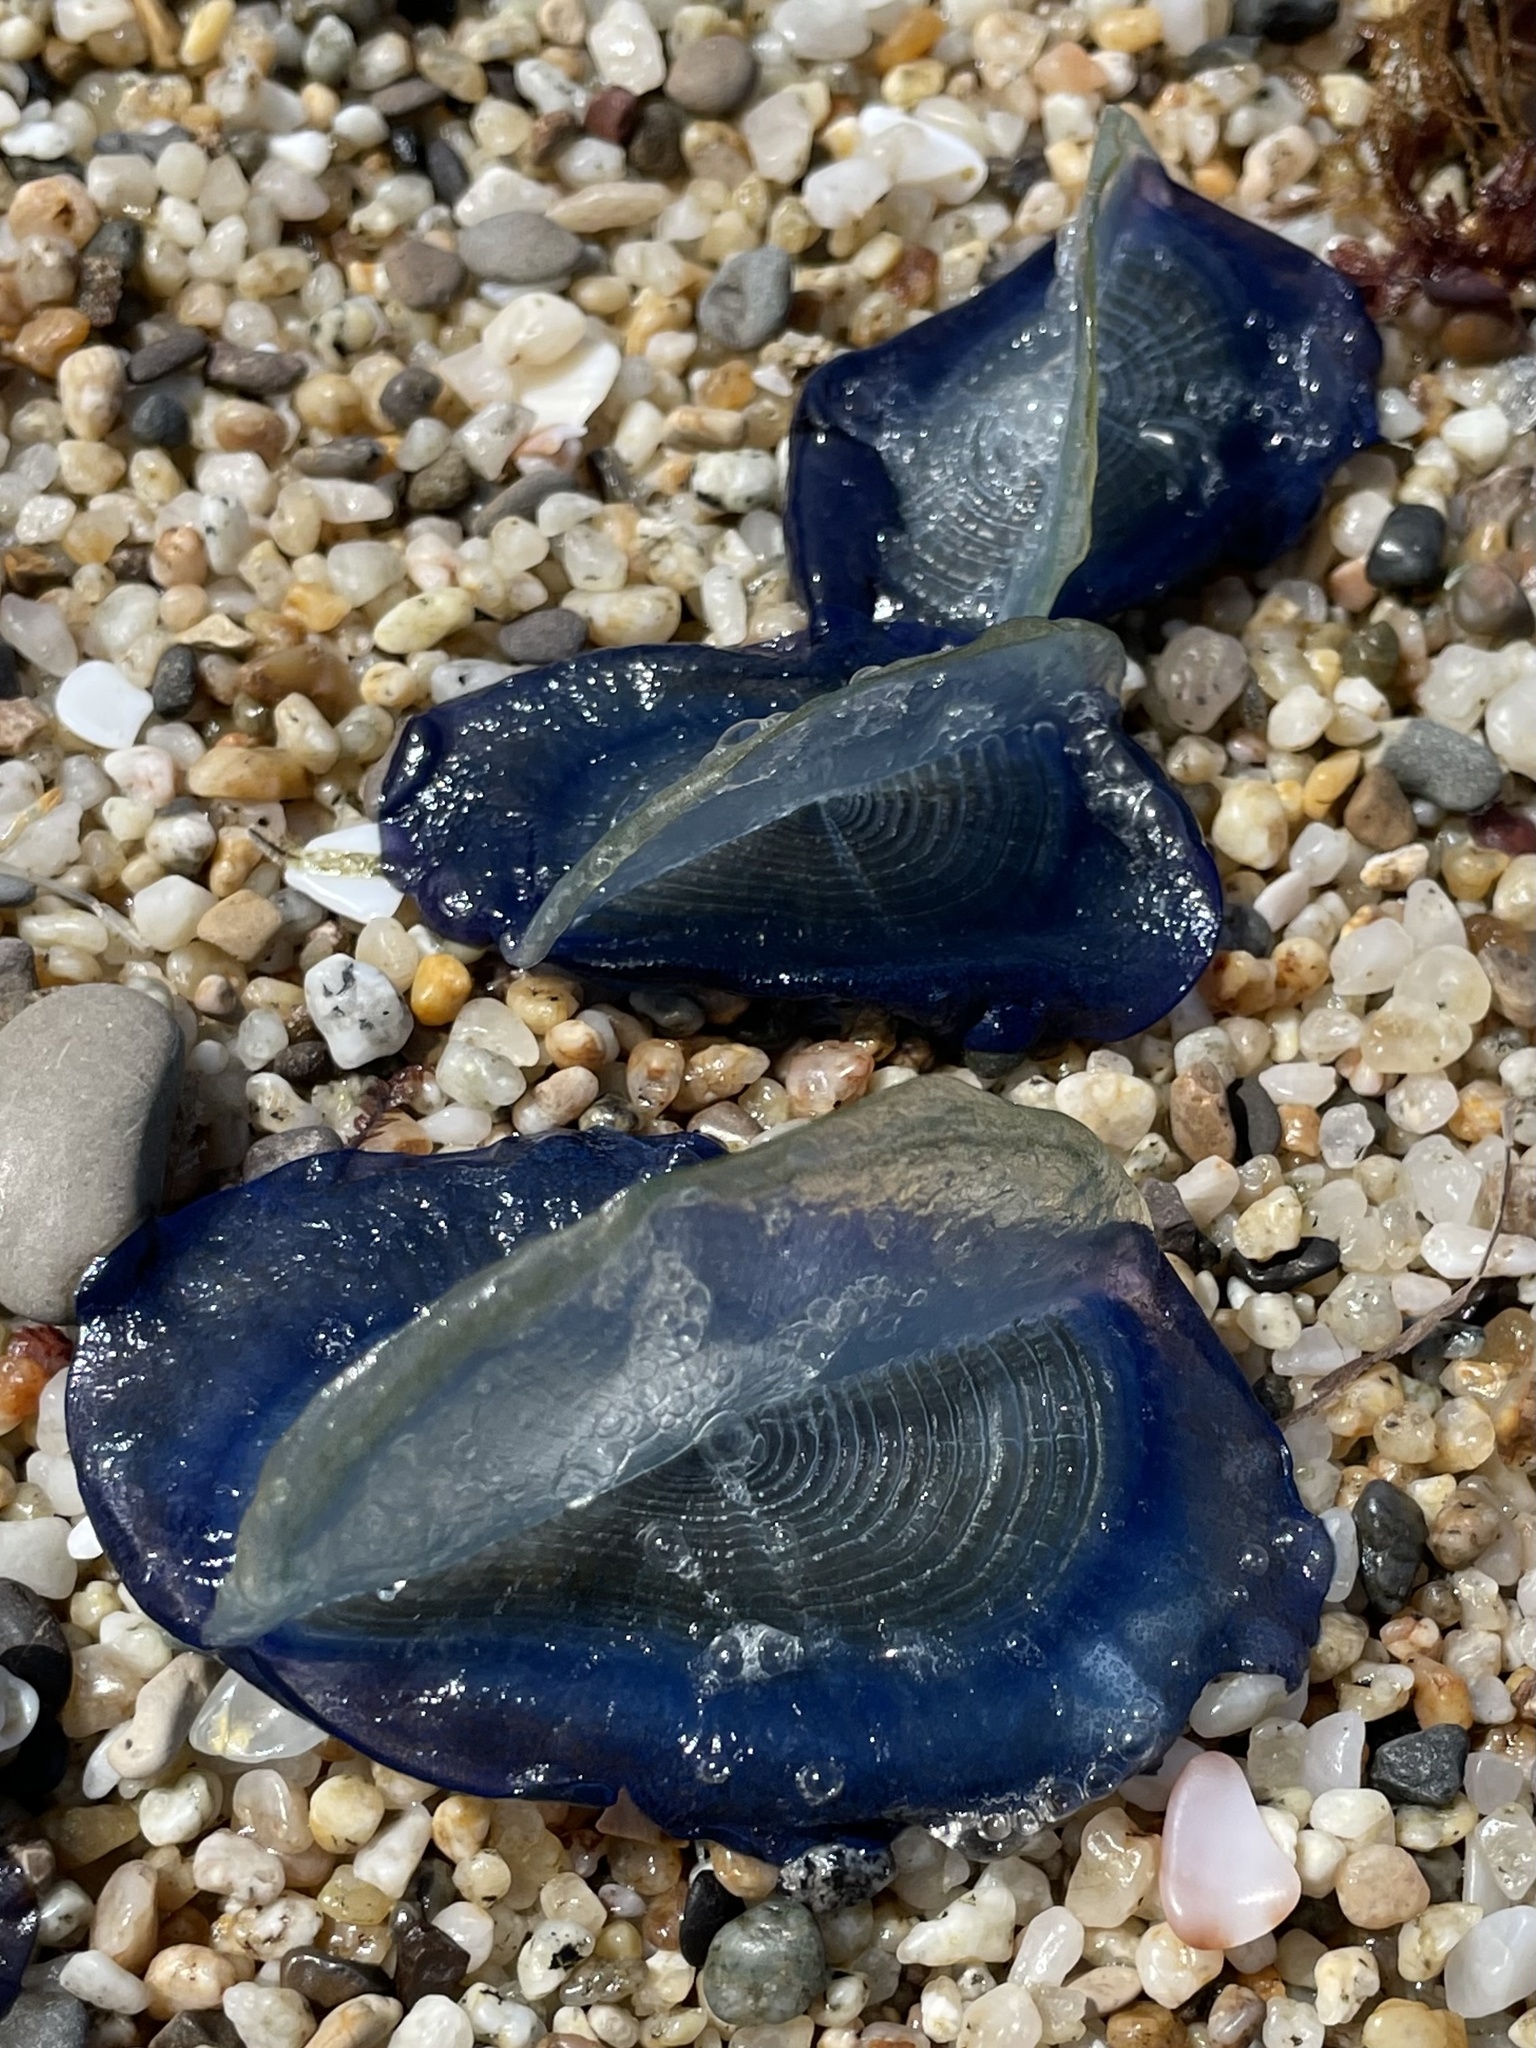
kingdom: Animalia
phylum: Cnidaria
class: Hydrozoa
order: Anthoathecata
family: Porpitidae
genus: Velella
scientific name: Velella velella
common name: By-the-wind-sailor
